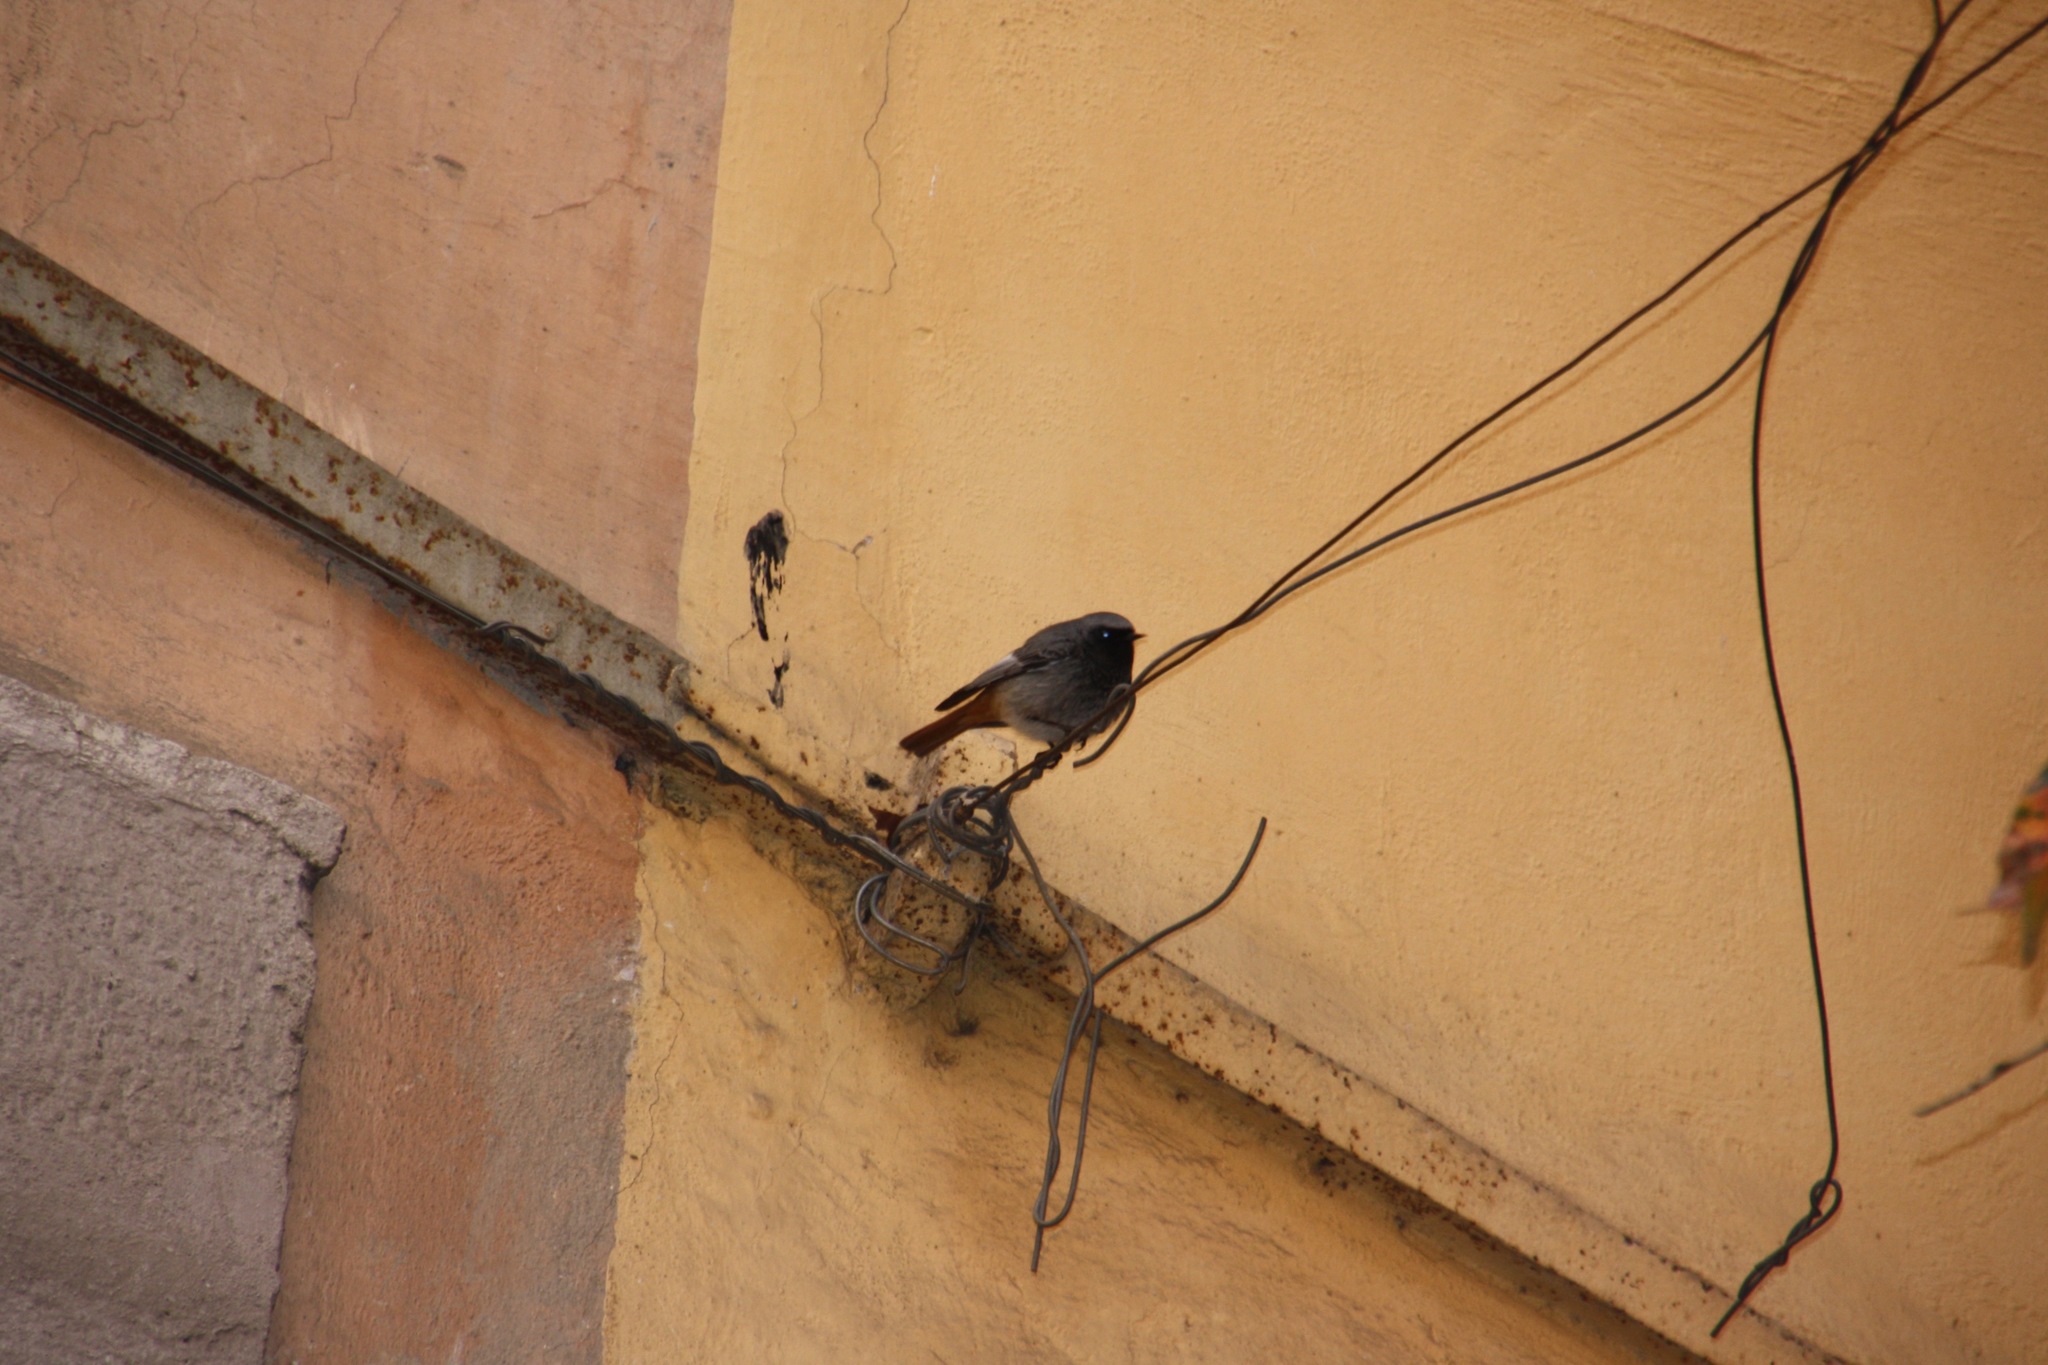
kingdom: Animalia
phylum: Chordata
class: Aves
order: Passeriformes
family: Muscicapidae
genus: Phoenicurus
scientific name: Phoenicurus ochruros
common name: Black redstart
